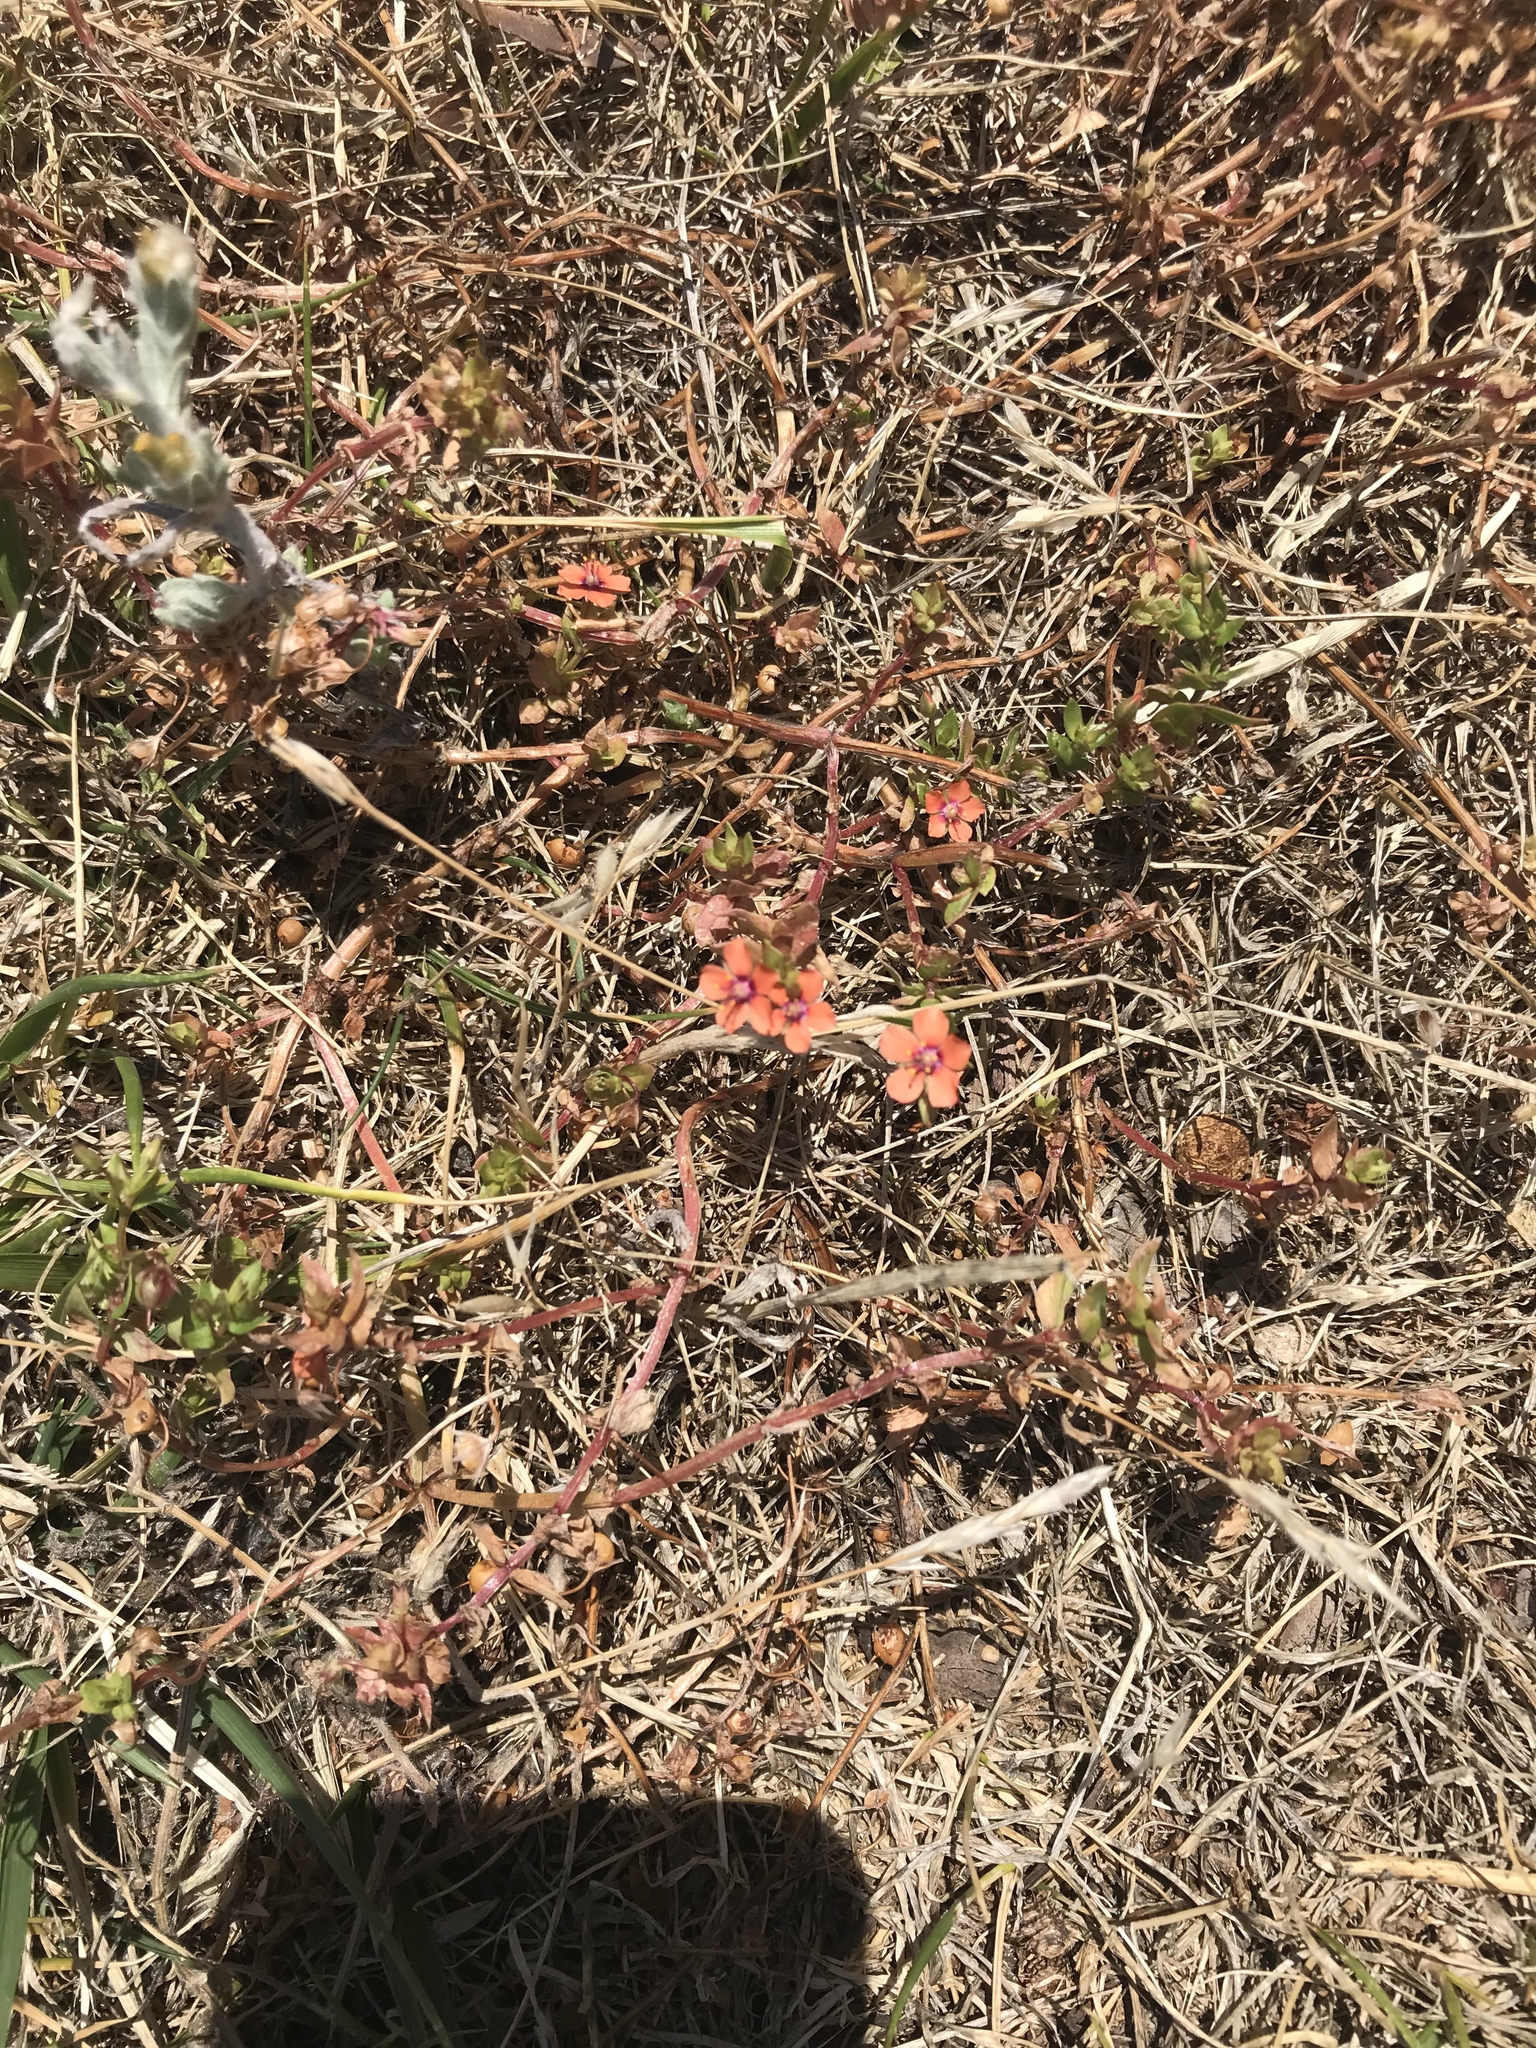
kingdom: Plantae
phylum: Tracheophyta
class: Magnoliopsida
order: Ericales
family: Primulaceae
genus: Lysimachia
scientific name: Lysimachia arvensis
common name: Scarlet pimpernel
